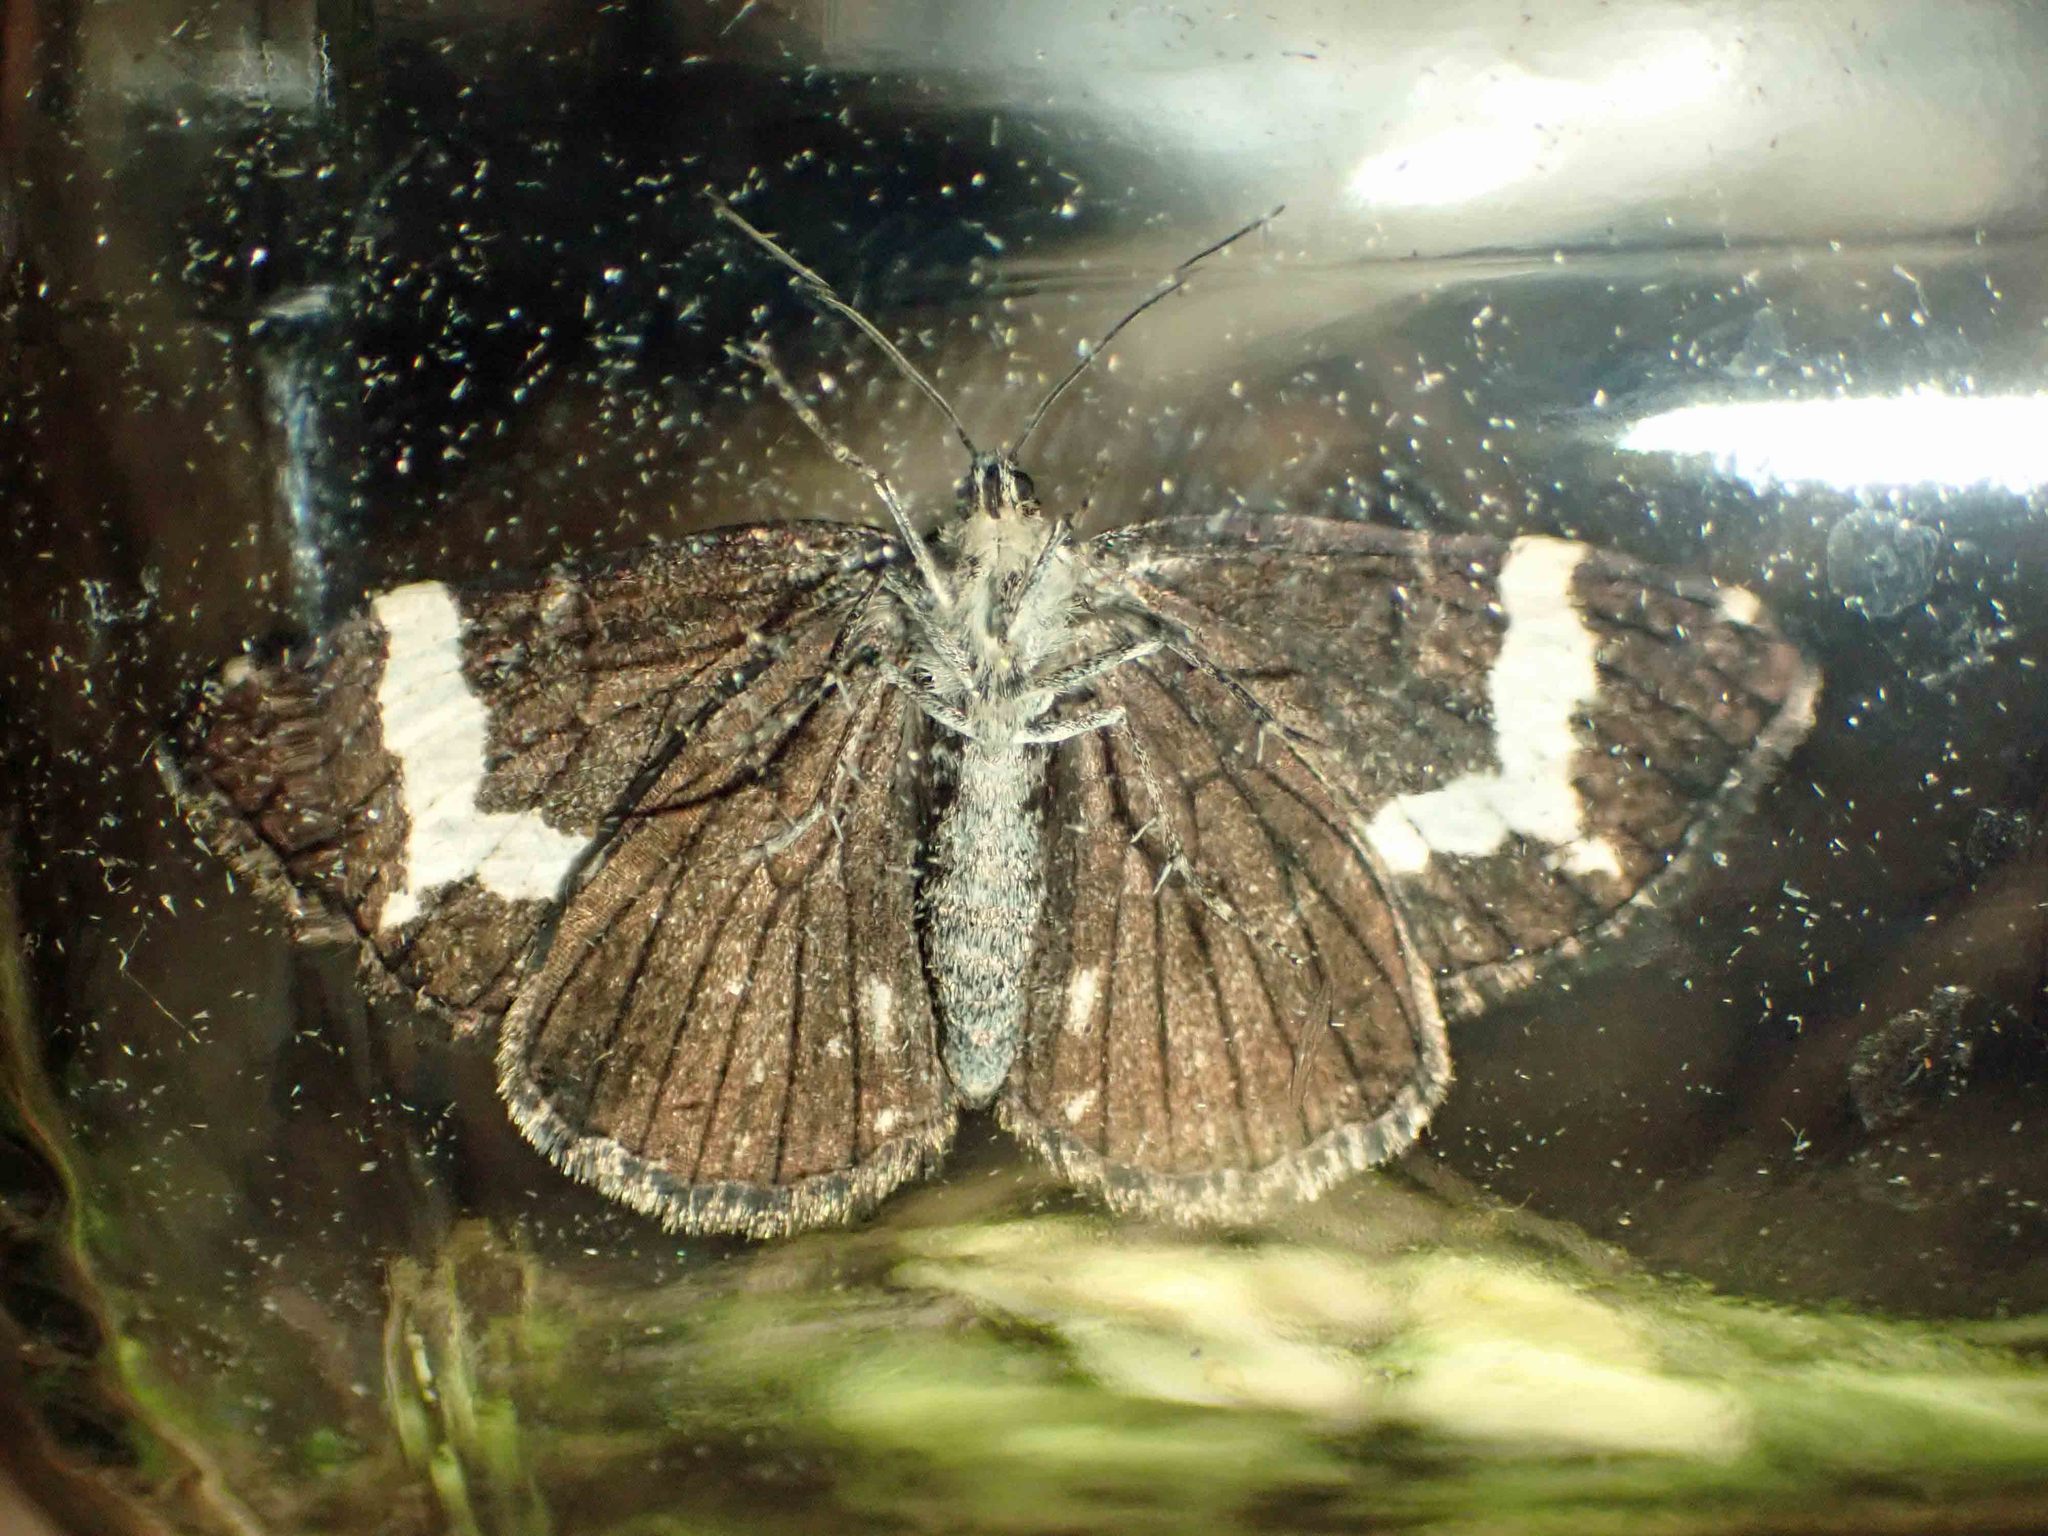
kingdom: Animalia
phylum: Arthropoda
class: Insecta
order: Lepidoptera
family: Geometridae
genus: Rheumaptera
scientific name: Rheumaptera
